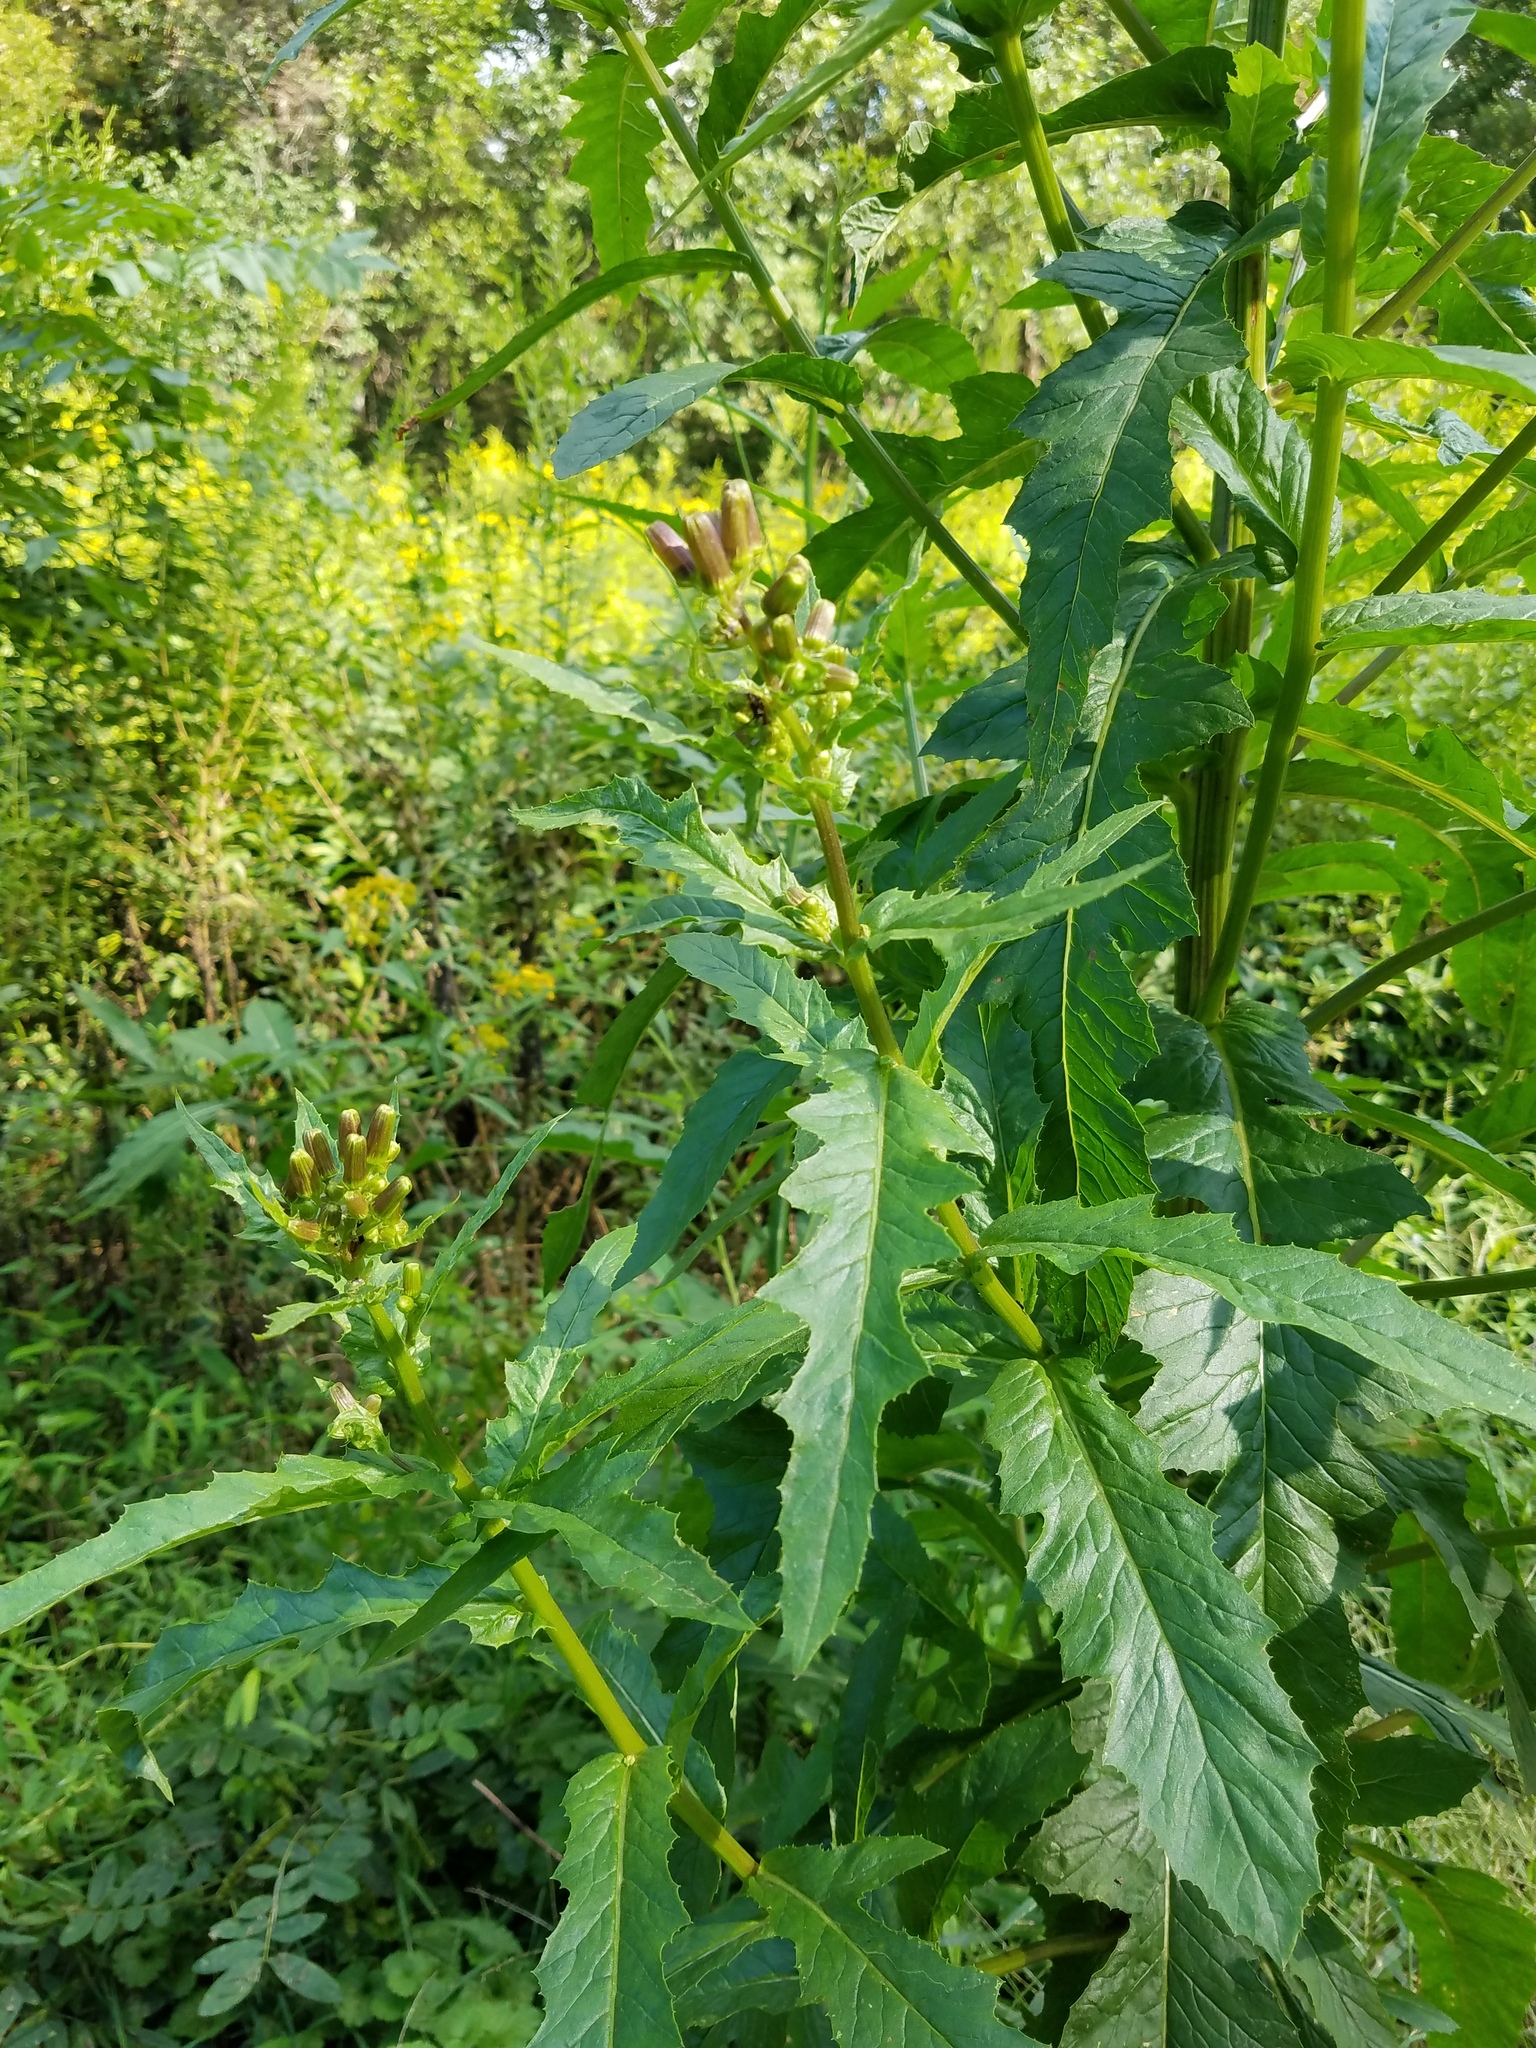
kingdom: Plantae
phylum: Tracheophyta
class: Magnoliopsida
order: Asterales
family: Asteraceae
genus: Erechtites
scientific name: Erechtites hieraciifolius
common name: American burnweed
